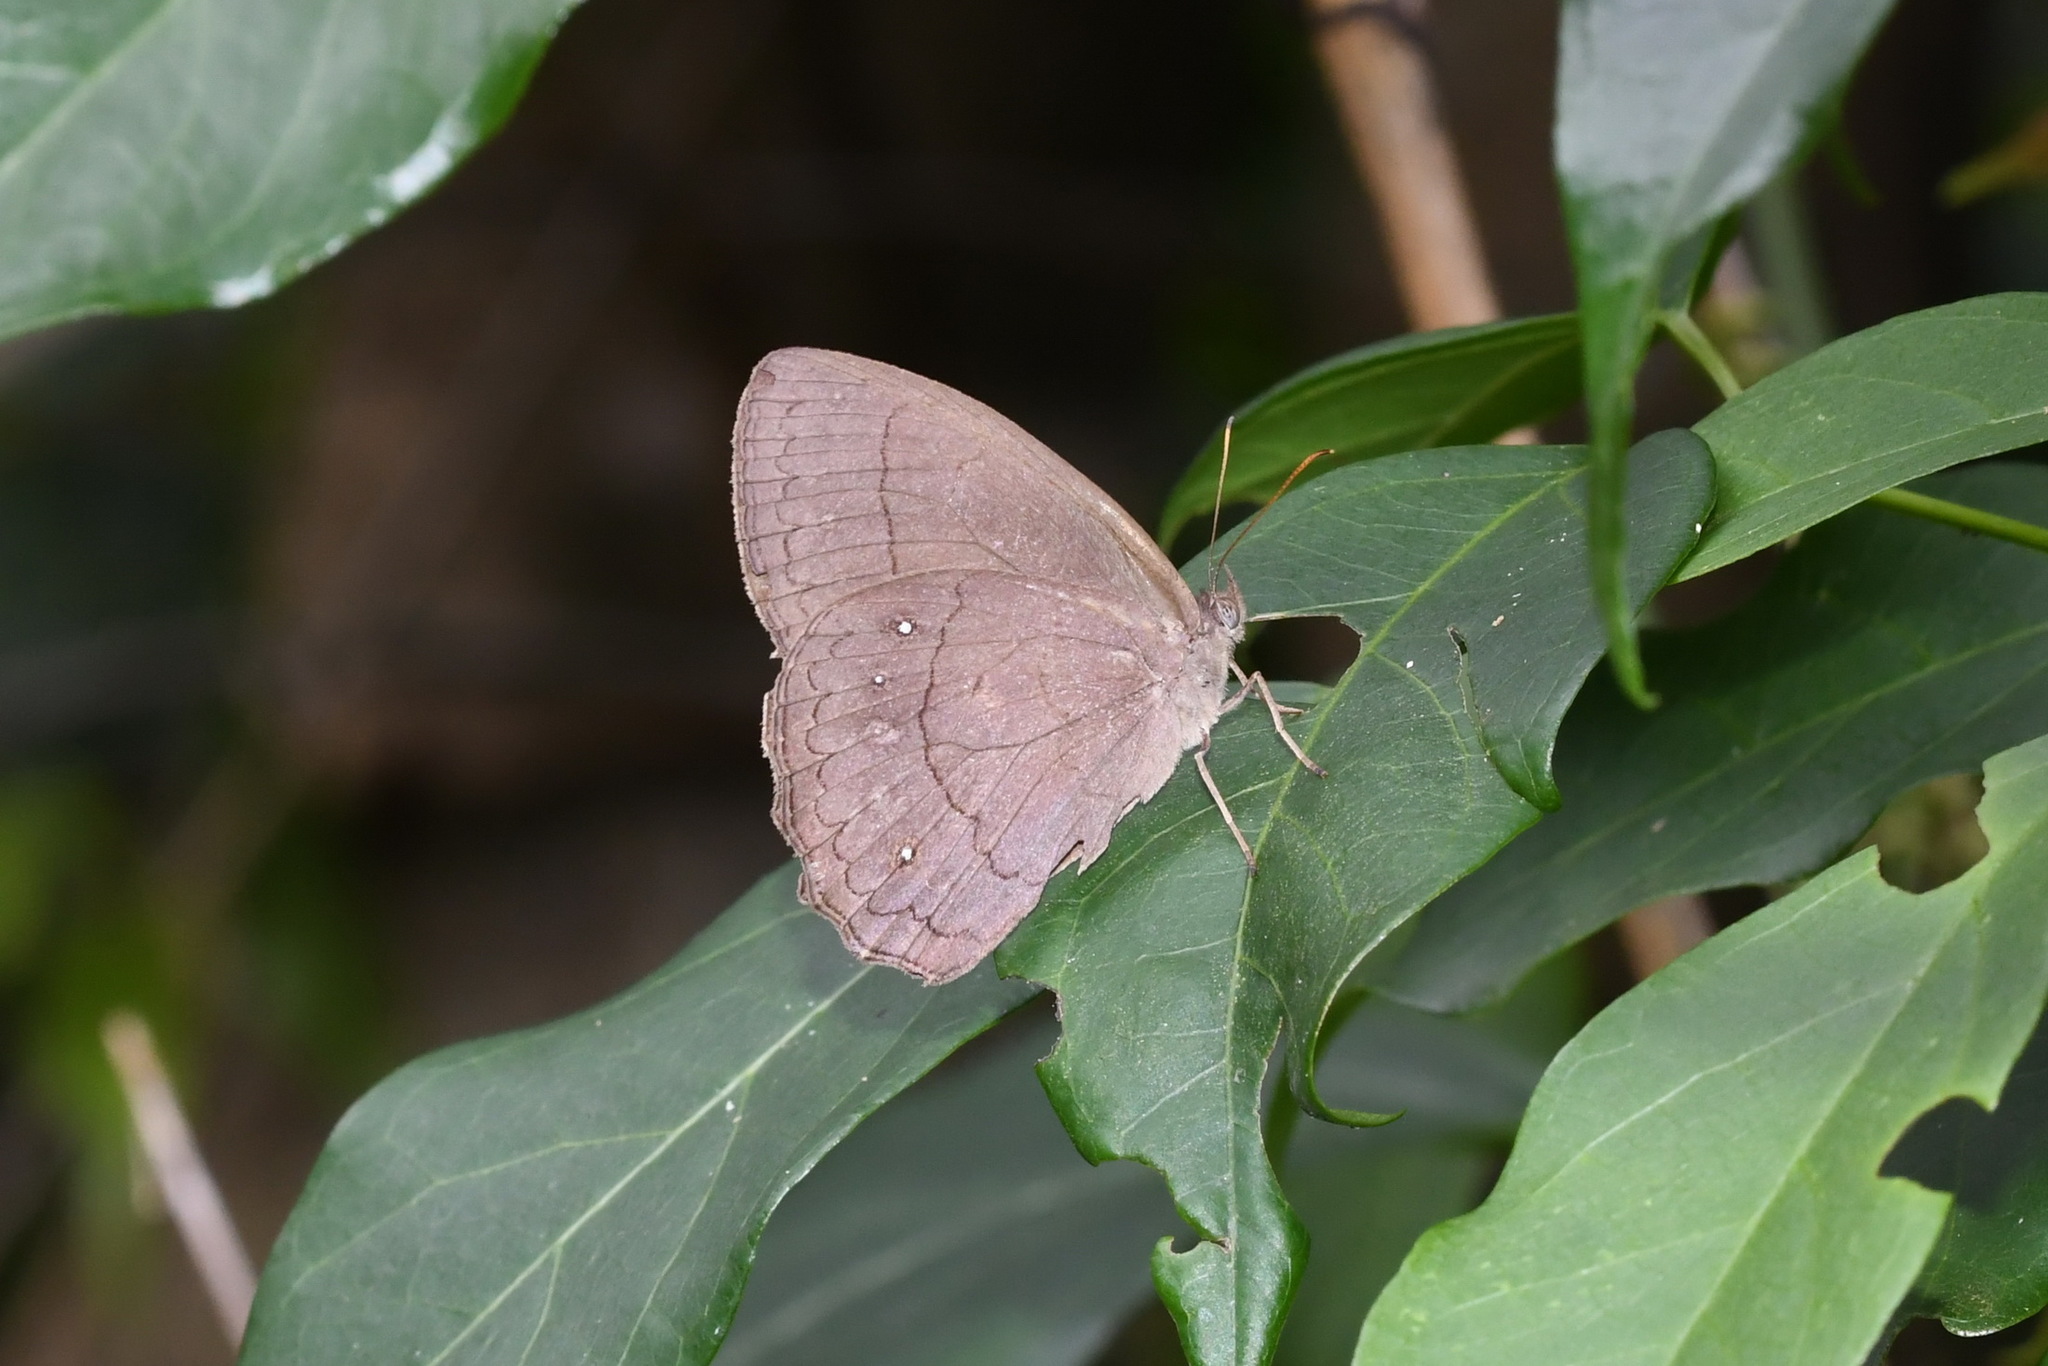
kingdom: Animalia
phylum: Arthropoda
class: Insecta
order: Lepidoptera
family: Nymphalidae
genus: Taygetina
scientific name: Taygetina kerea
